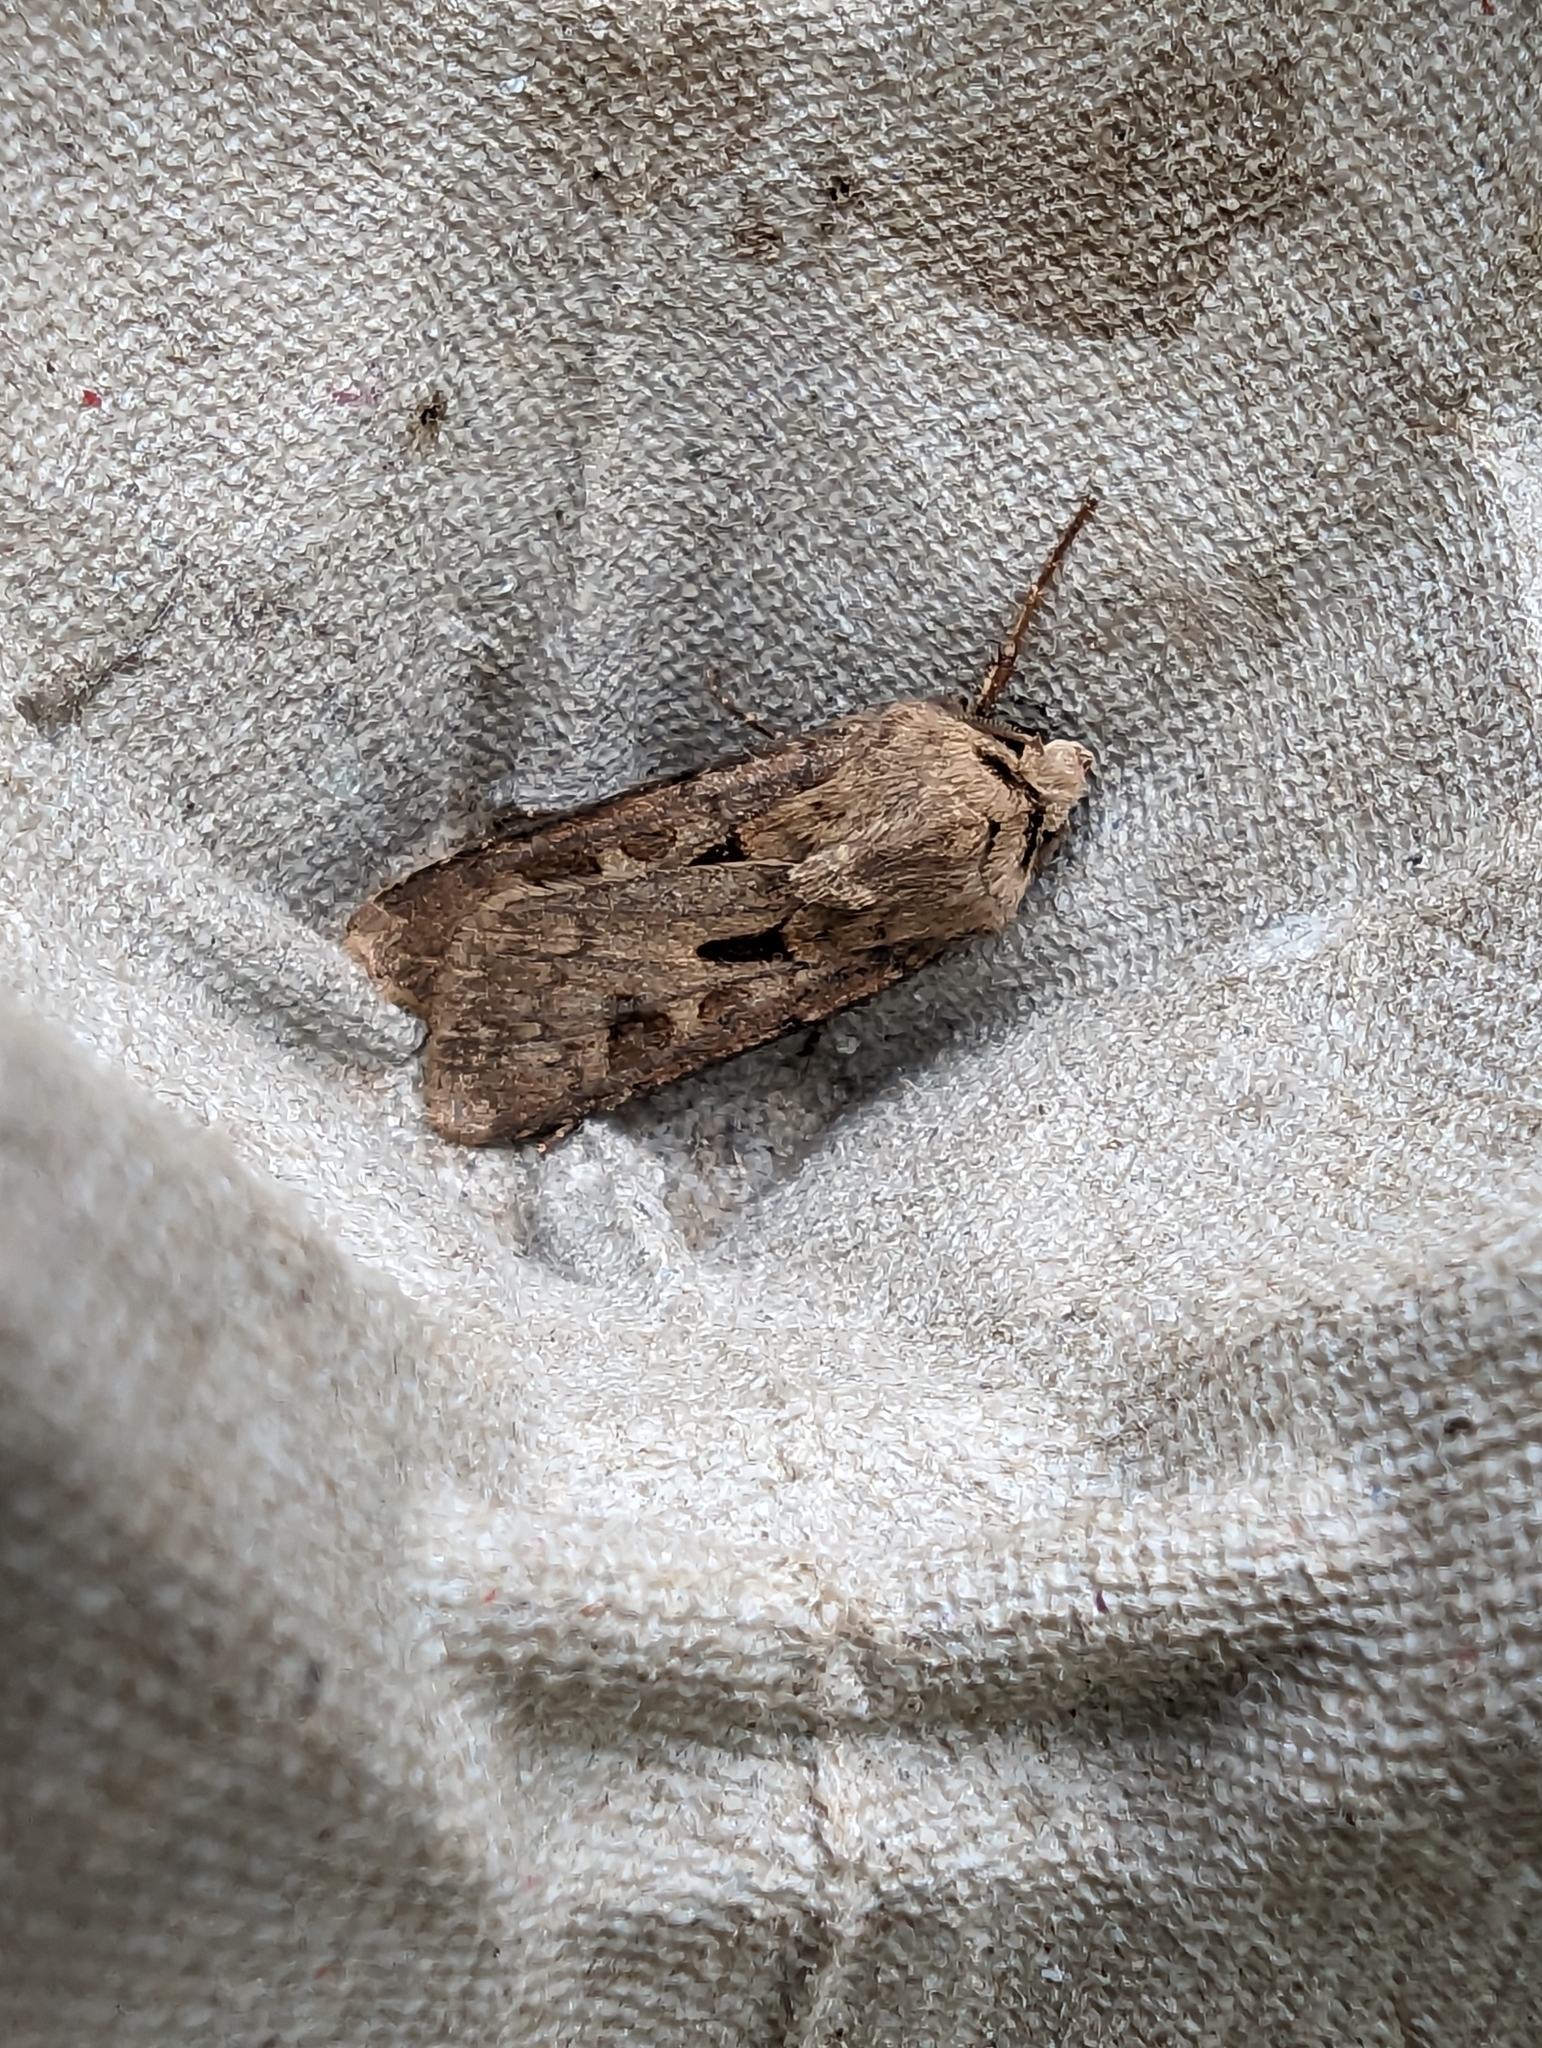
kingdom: Animalia
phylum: Arthropoda
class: Insecta
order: Lepidoptera
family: Noctuidae
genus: Agrotis
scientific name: Agrotis exclamationis
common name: Heart and dart
